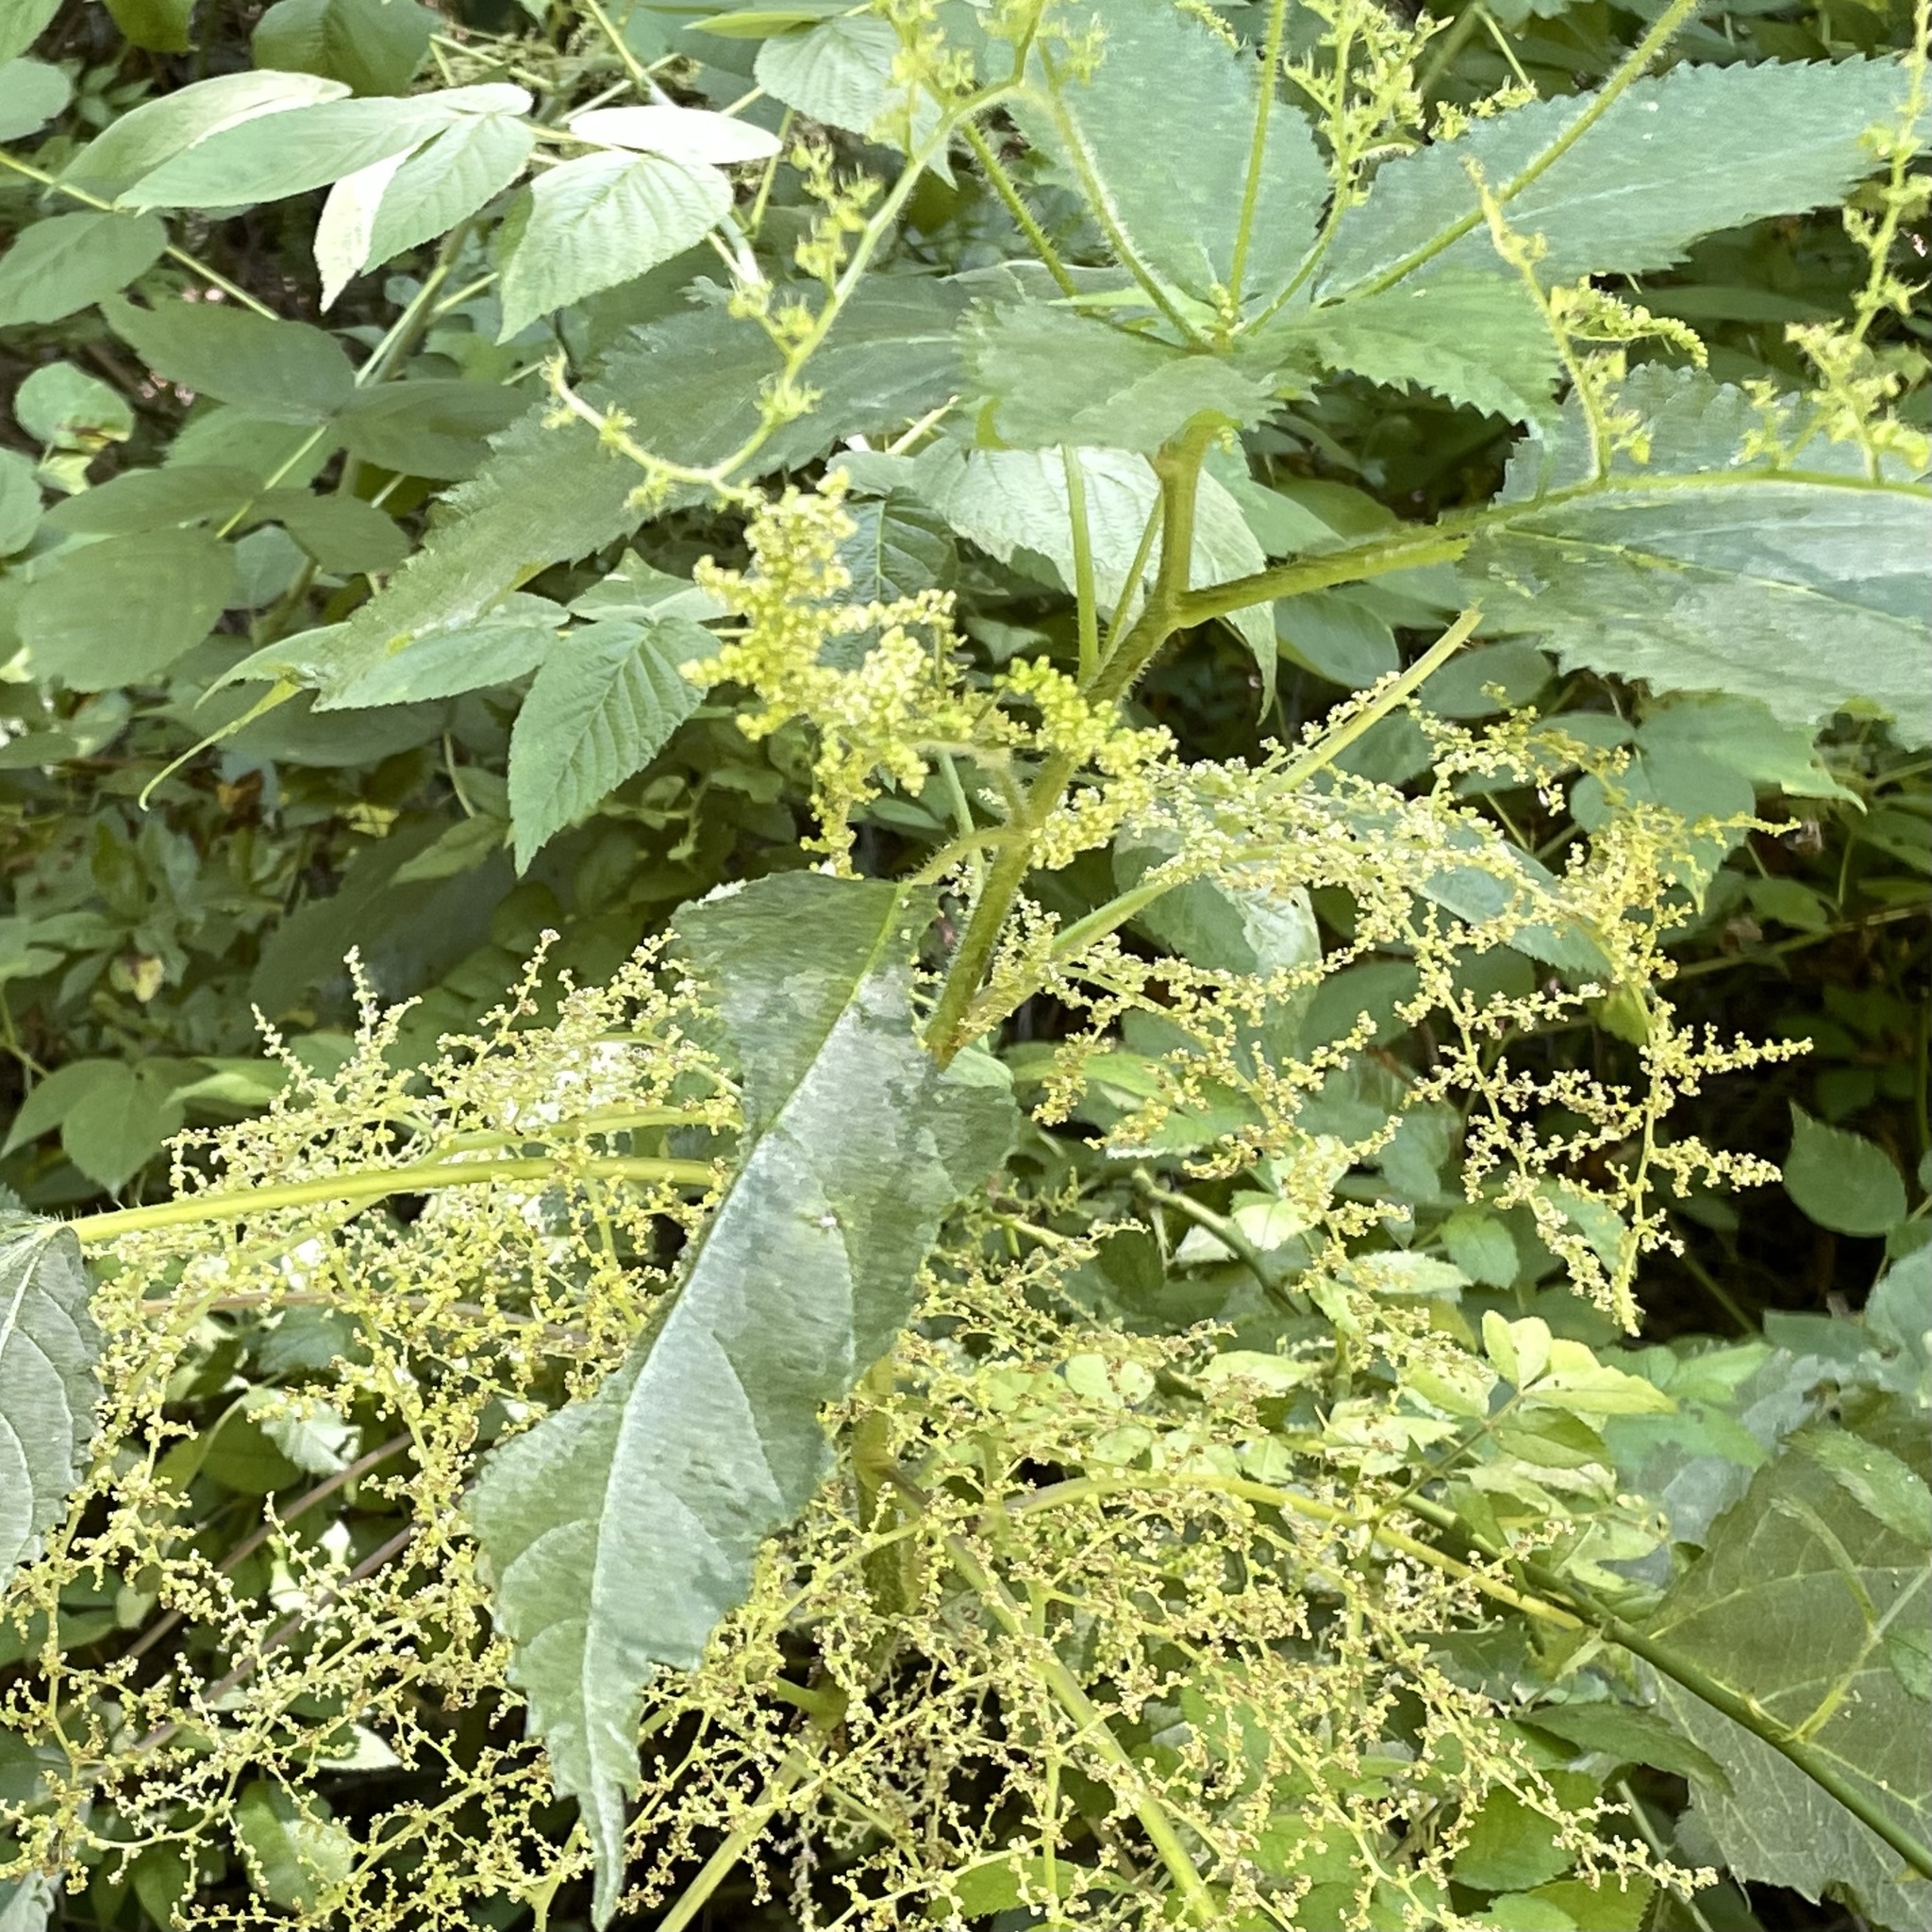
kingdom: Plantae
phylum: Tracheophyta
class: Magnoliopsida
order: Rosales
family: Urticaceae
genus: Laportea
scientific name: Laportea canadensis
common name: Canada nettle
